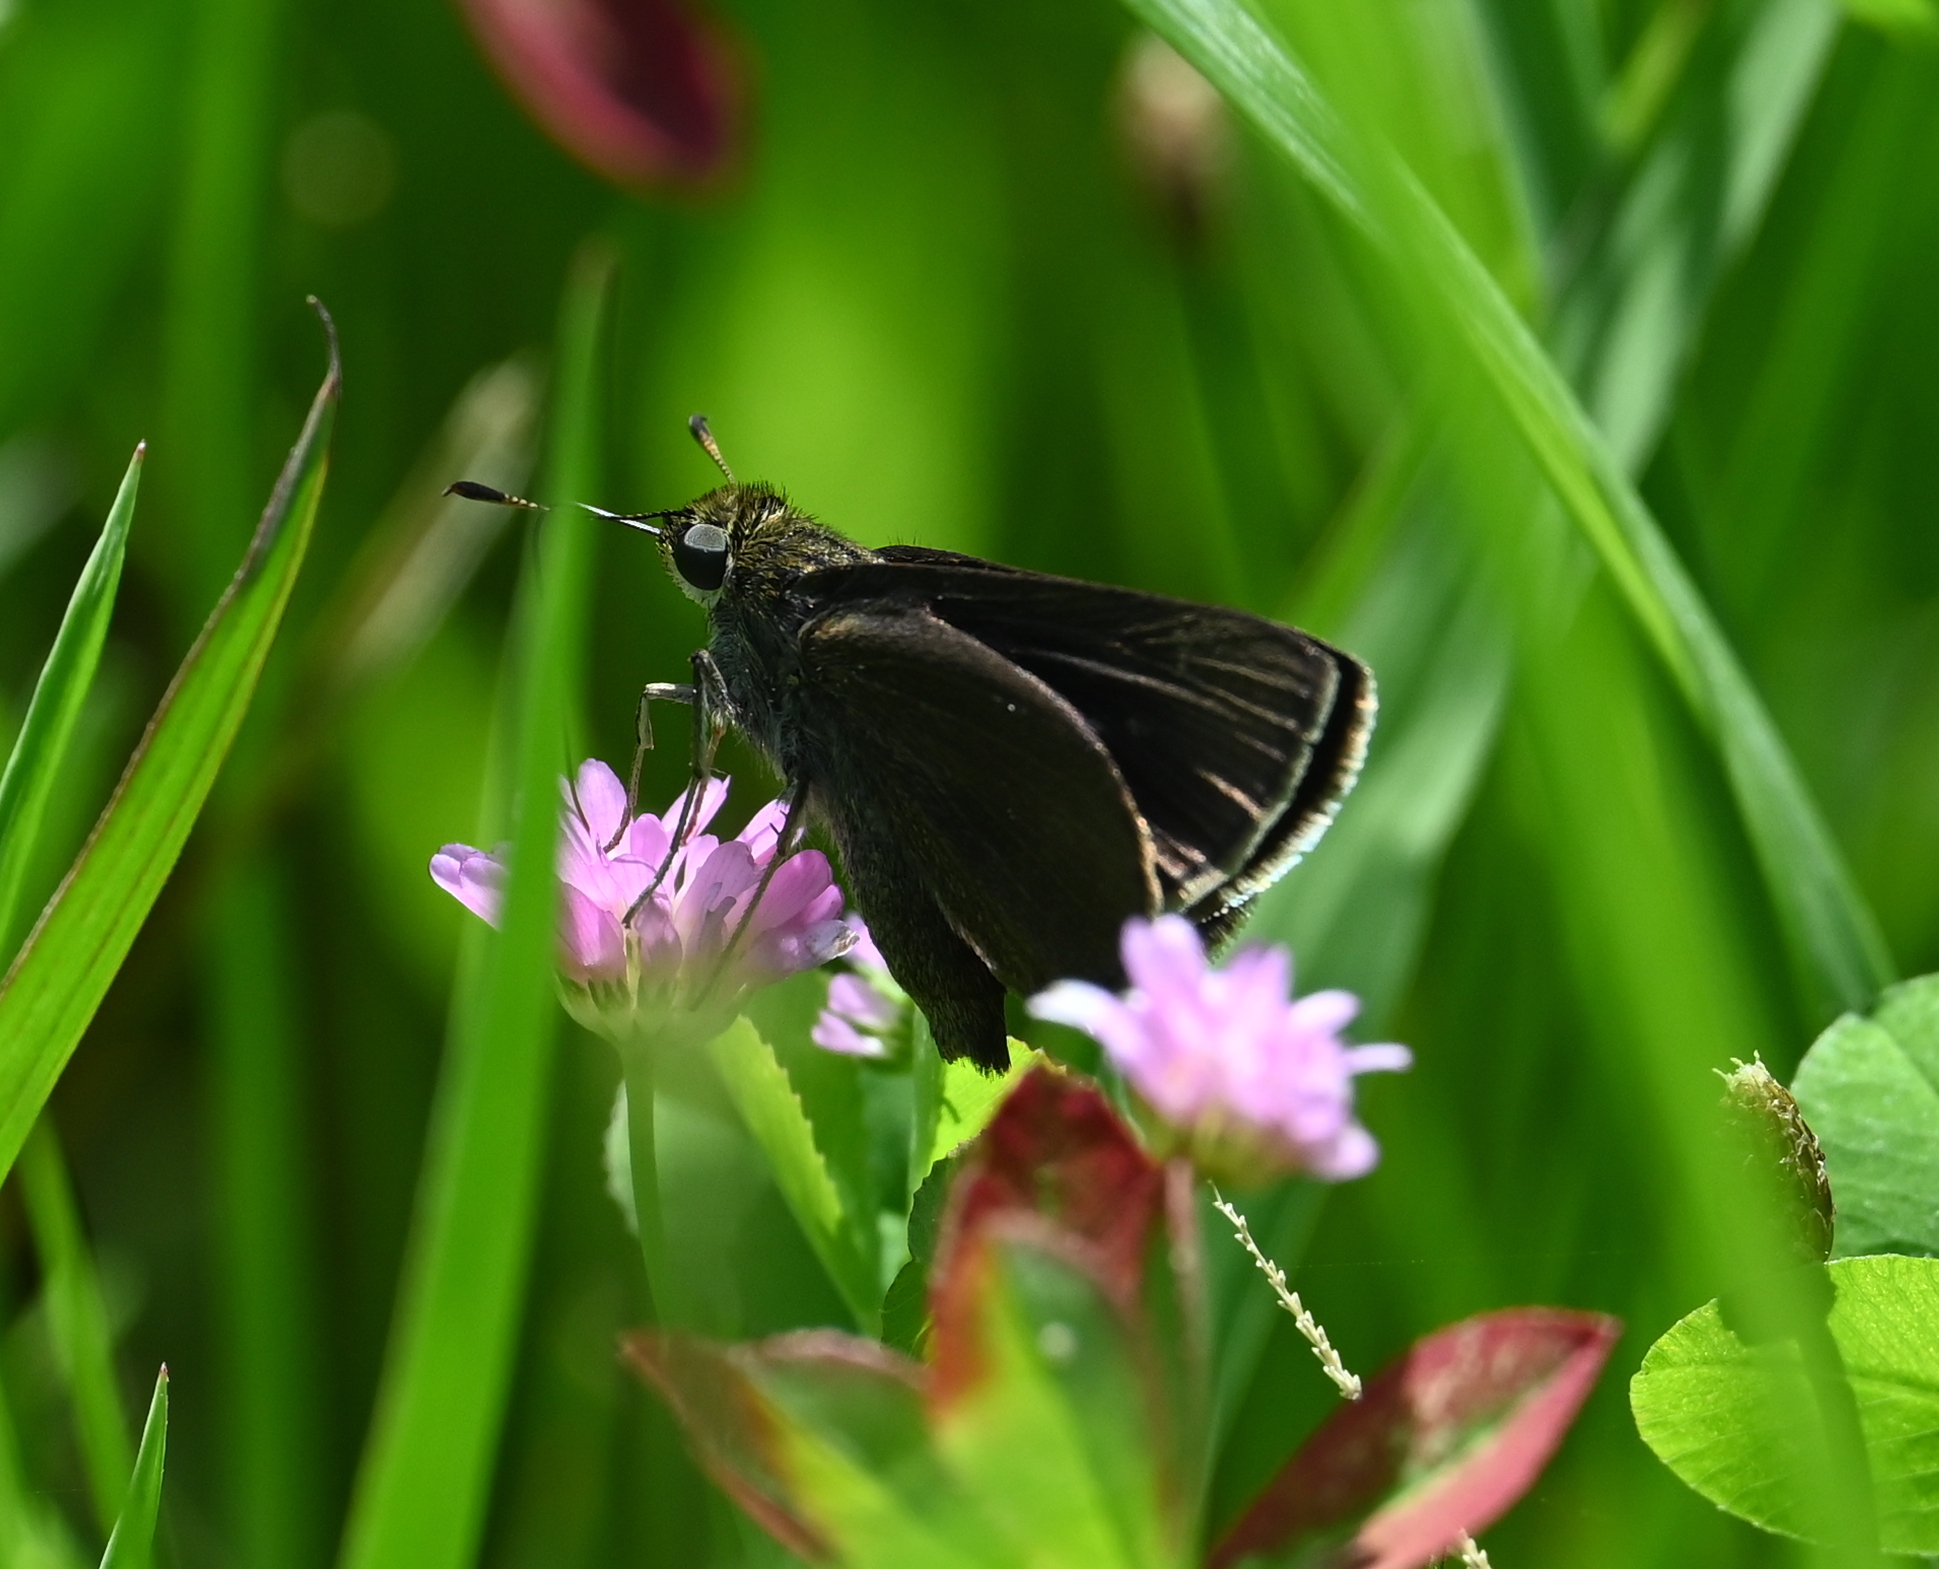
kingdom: Animalia
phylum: Arthropoda
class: Insecta
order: Lepidoptera
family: Hesperiidae
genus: Euphyes
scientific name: Euphyes vestris
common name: Dun skipper
